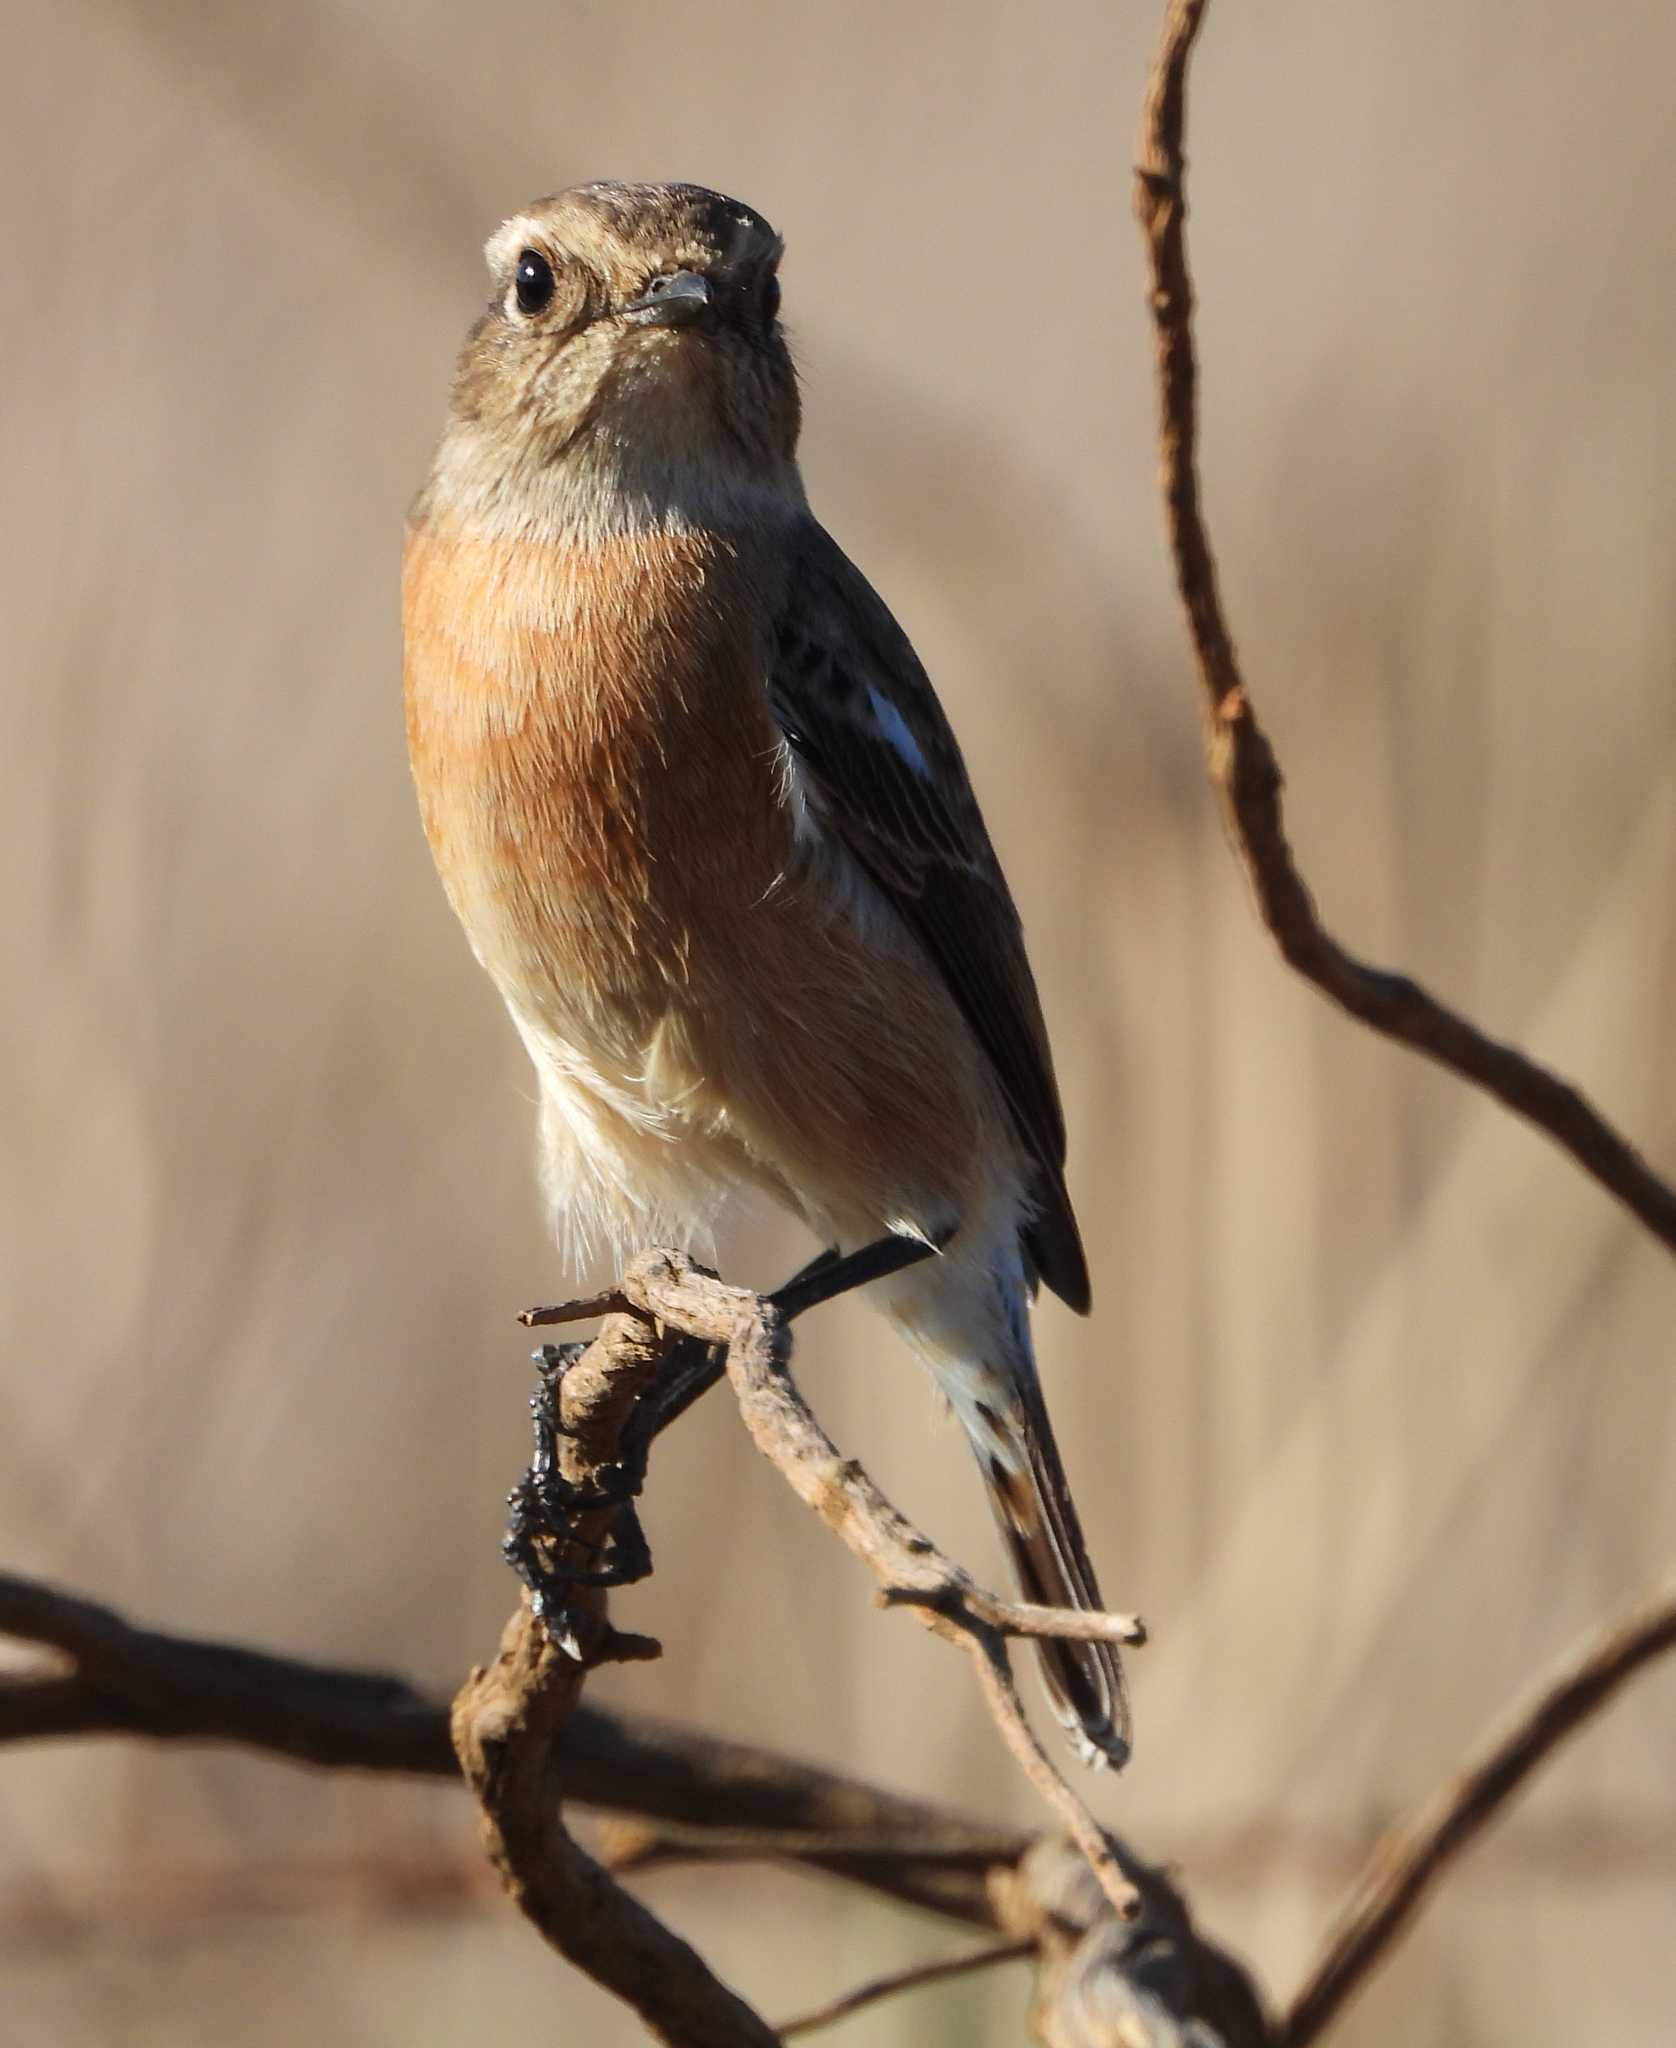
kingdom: Animalia
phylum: Chordata
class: Aves
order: Passeriformes
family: Muscicapidae
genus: Saxicola
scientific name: Saxicola torquatus
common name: African stonechat
